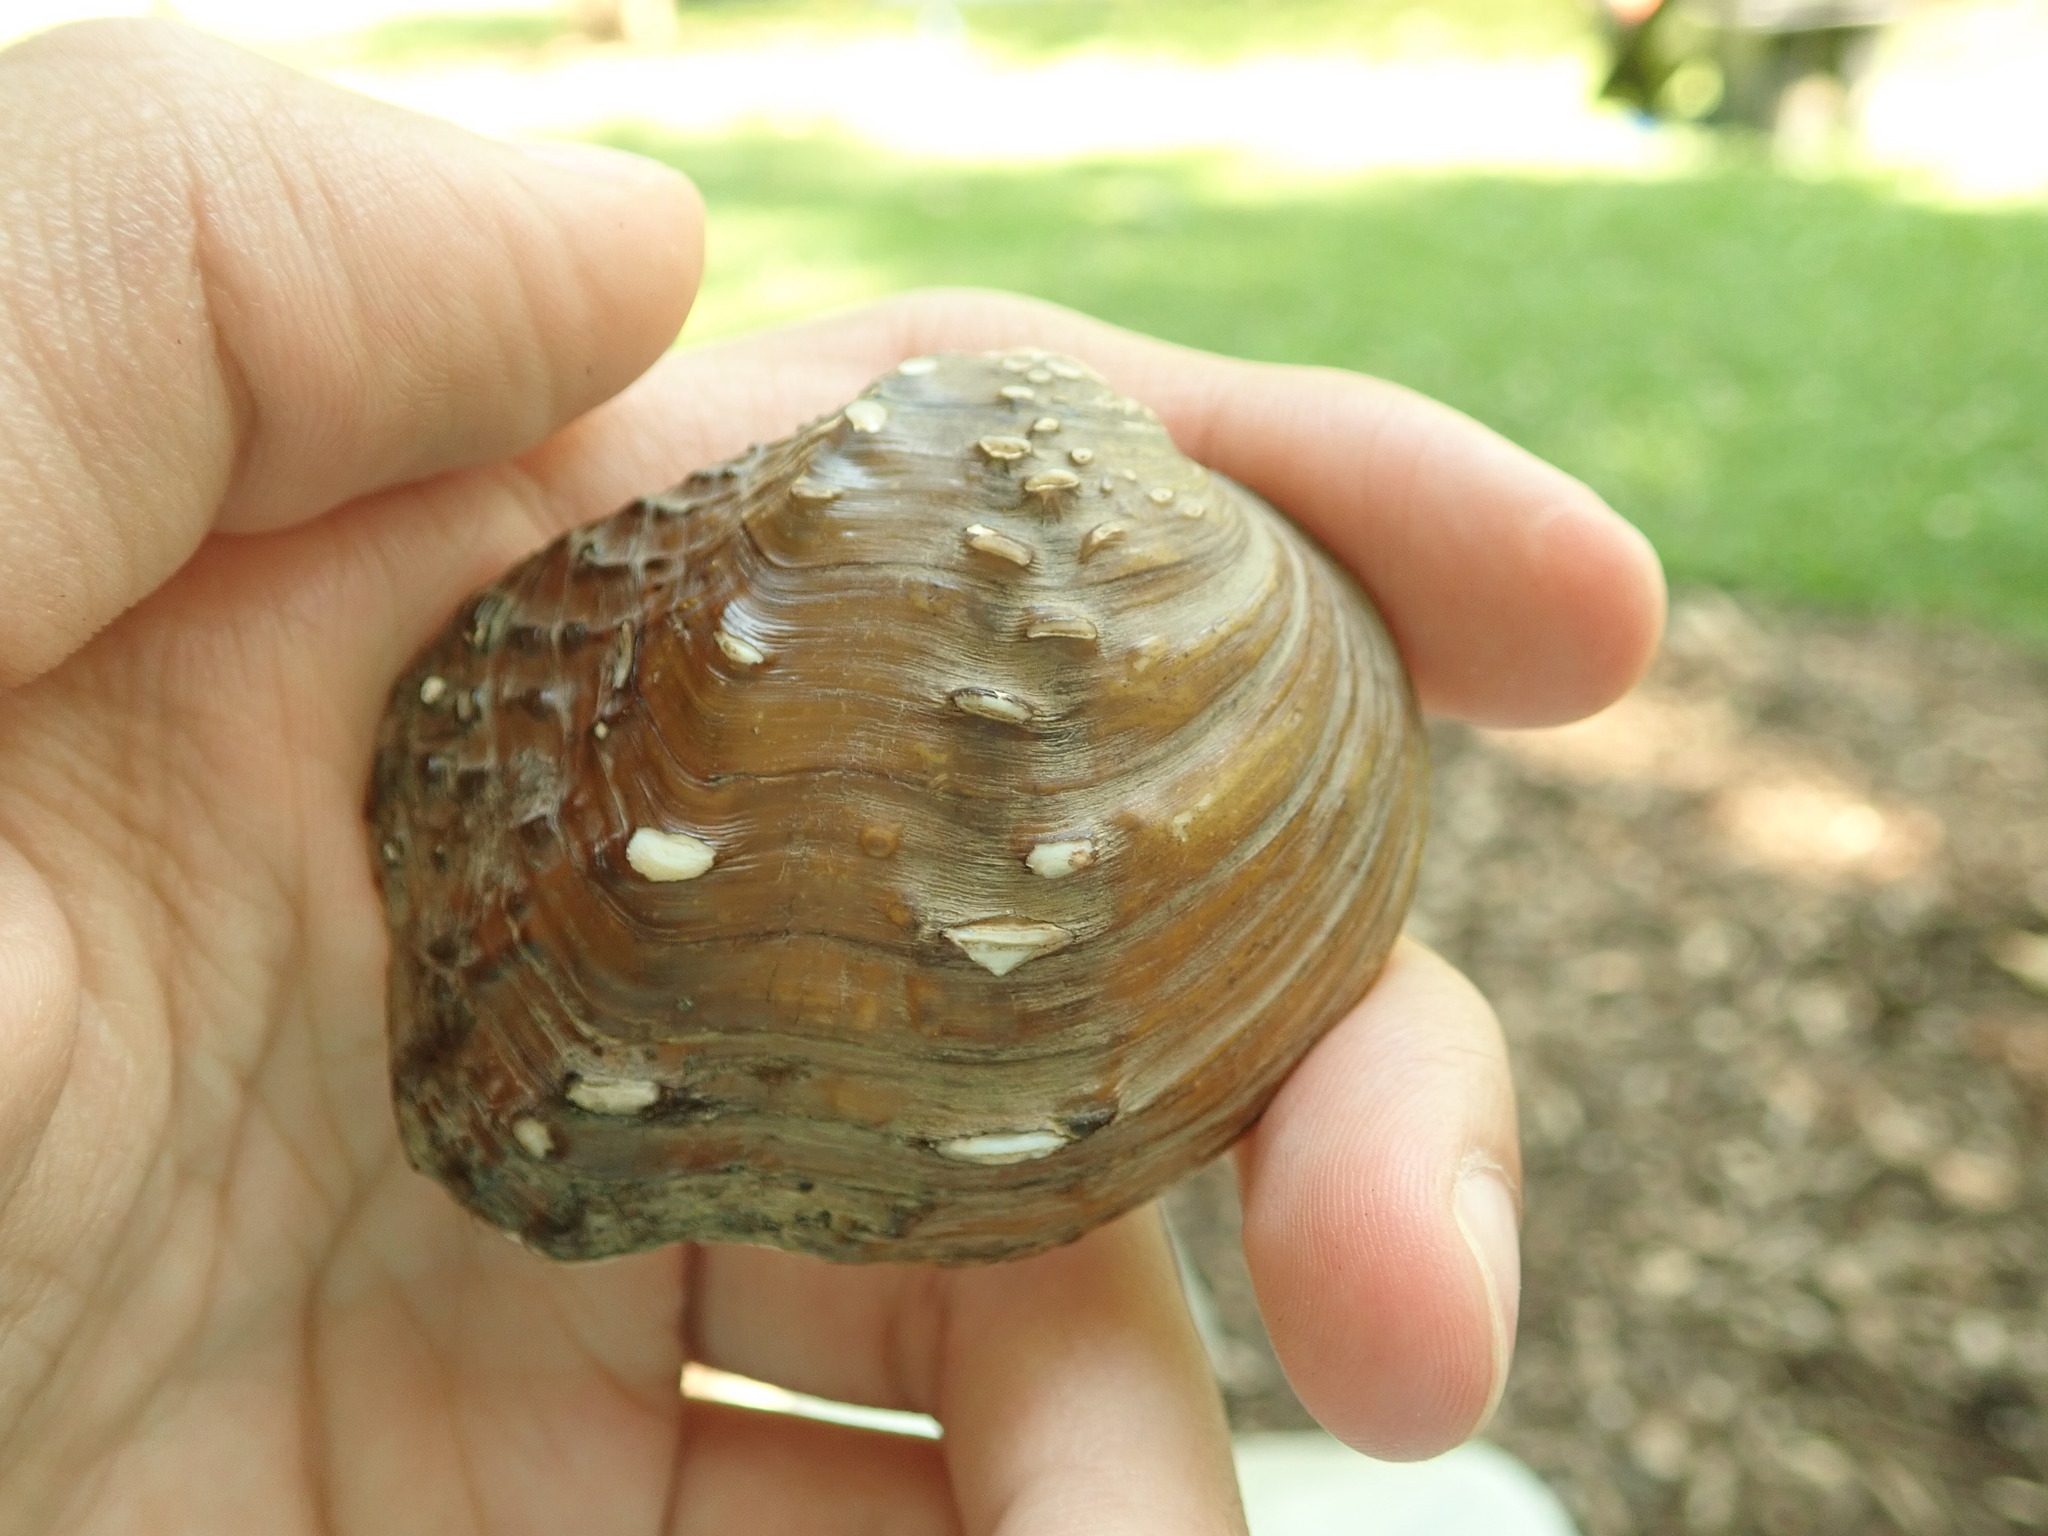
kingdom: Animalia
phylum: Mollusca
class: Bivalvia
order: Unionida
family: Unionidae
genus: Quadrula
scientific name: Quadrula quadrula
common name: Mapleleaf
